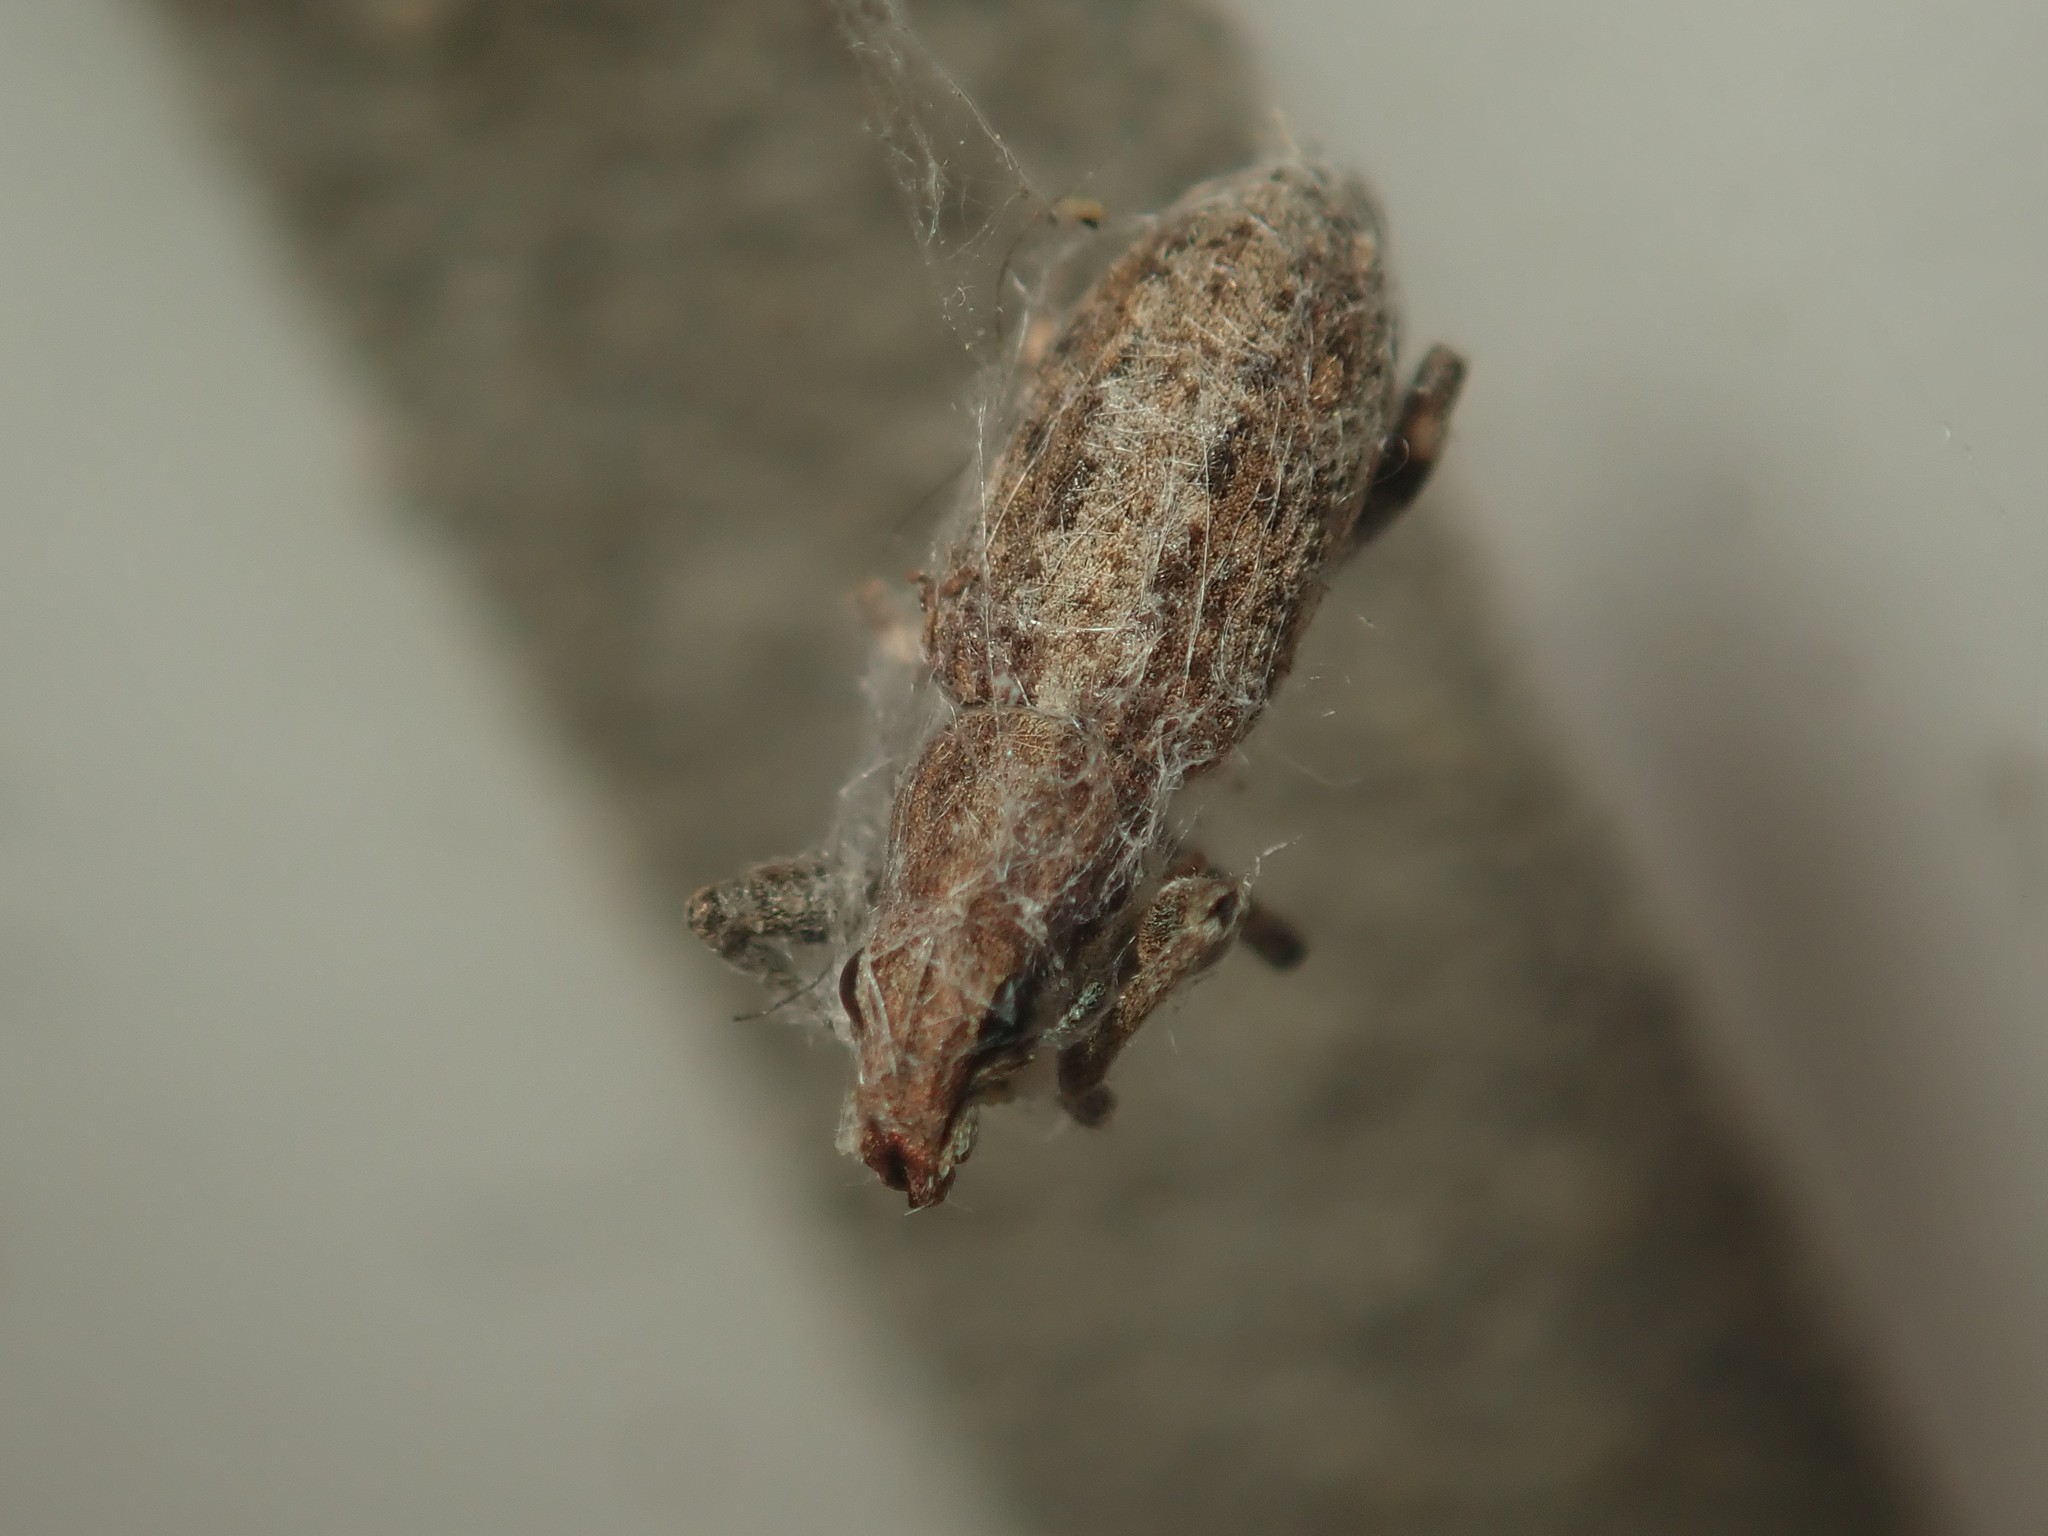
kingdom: Animalia
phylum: Arthropoda
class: Insecta
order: Coleoptera
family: Curculionidae
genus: Charagmus
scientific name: Charagmus griseus
